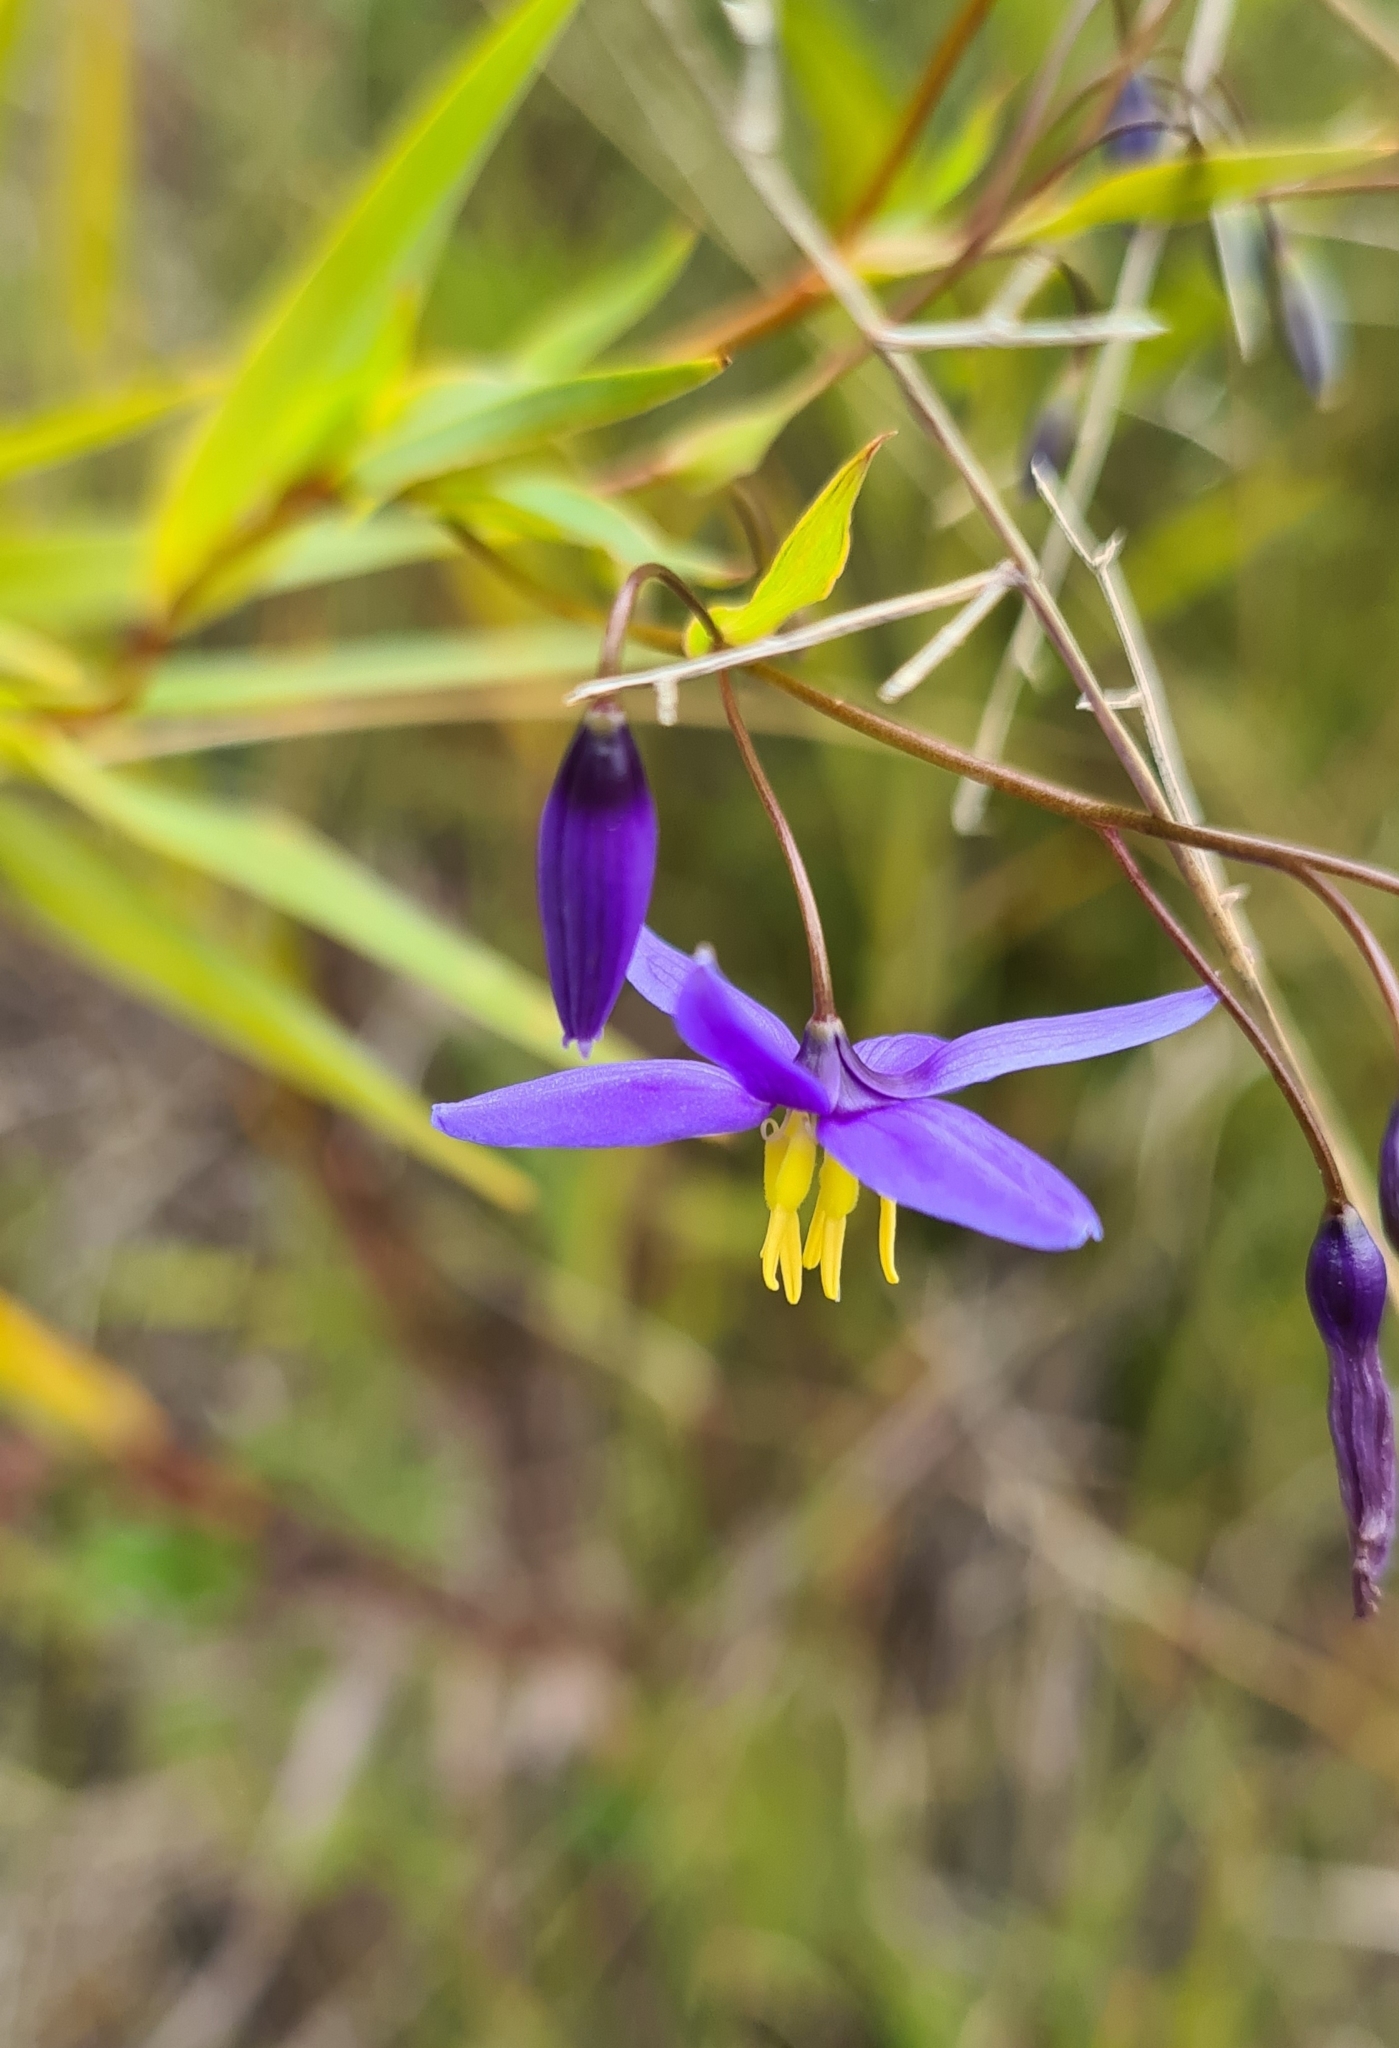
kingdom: Plantae
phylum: Tracheophyta
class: Liliopsida
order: Asparagales
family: Asphodelaceae
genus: Stypandra
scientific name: Stypandra glauca
